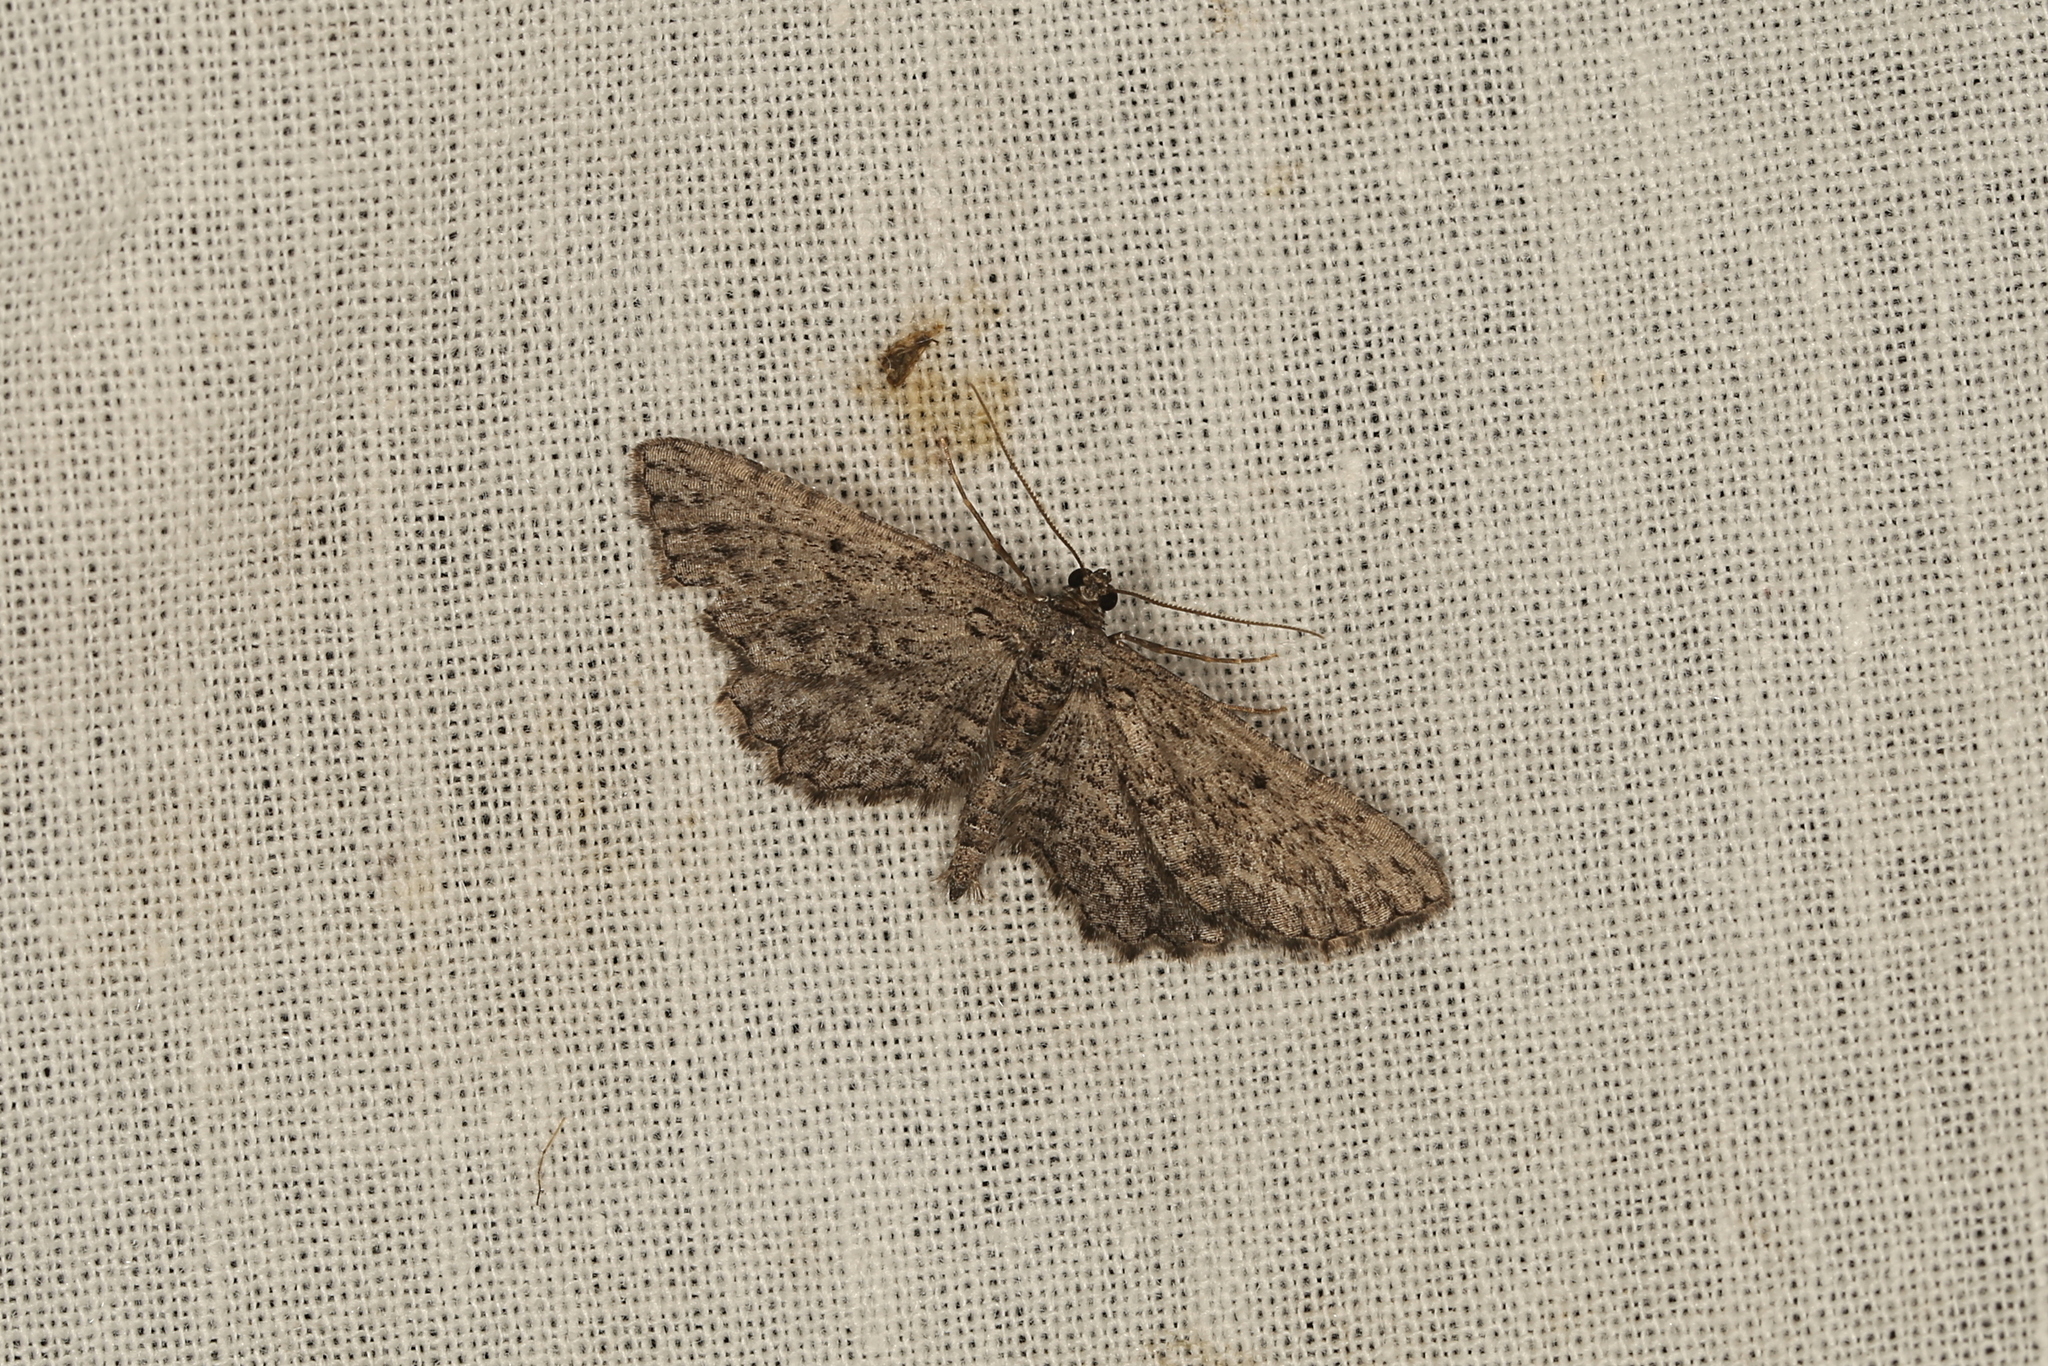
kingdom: Animalia
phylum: Arthropoda
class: Insecta
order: Lepidoptera
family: Geometridae
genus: Psilosticha
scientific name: Psilosticha pristis
